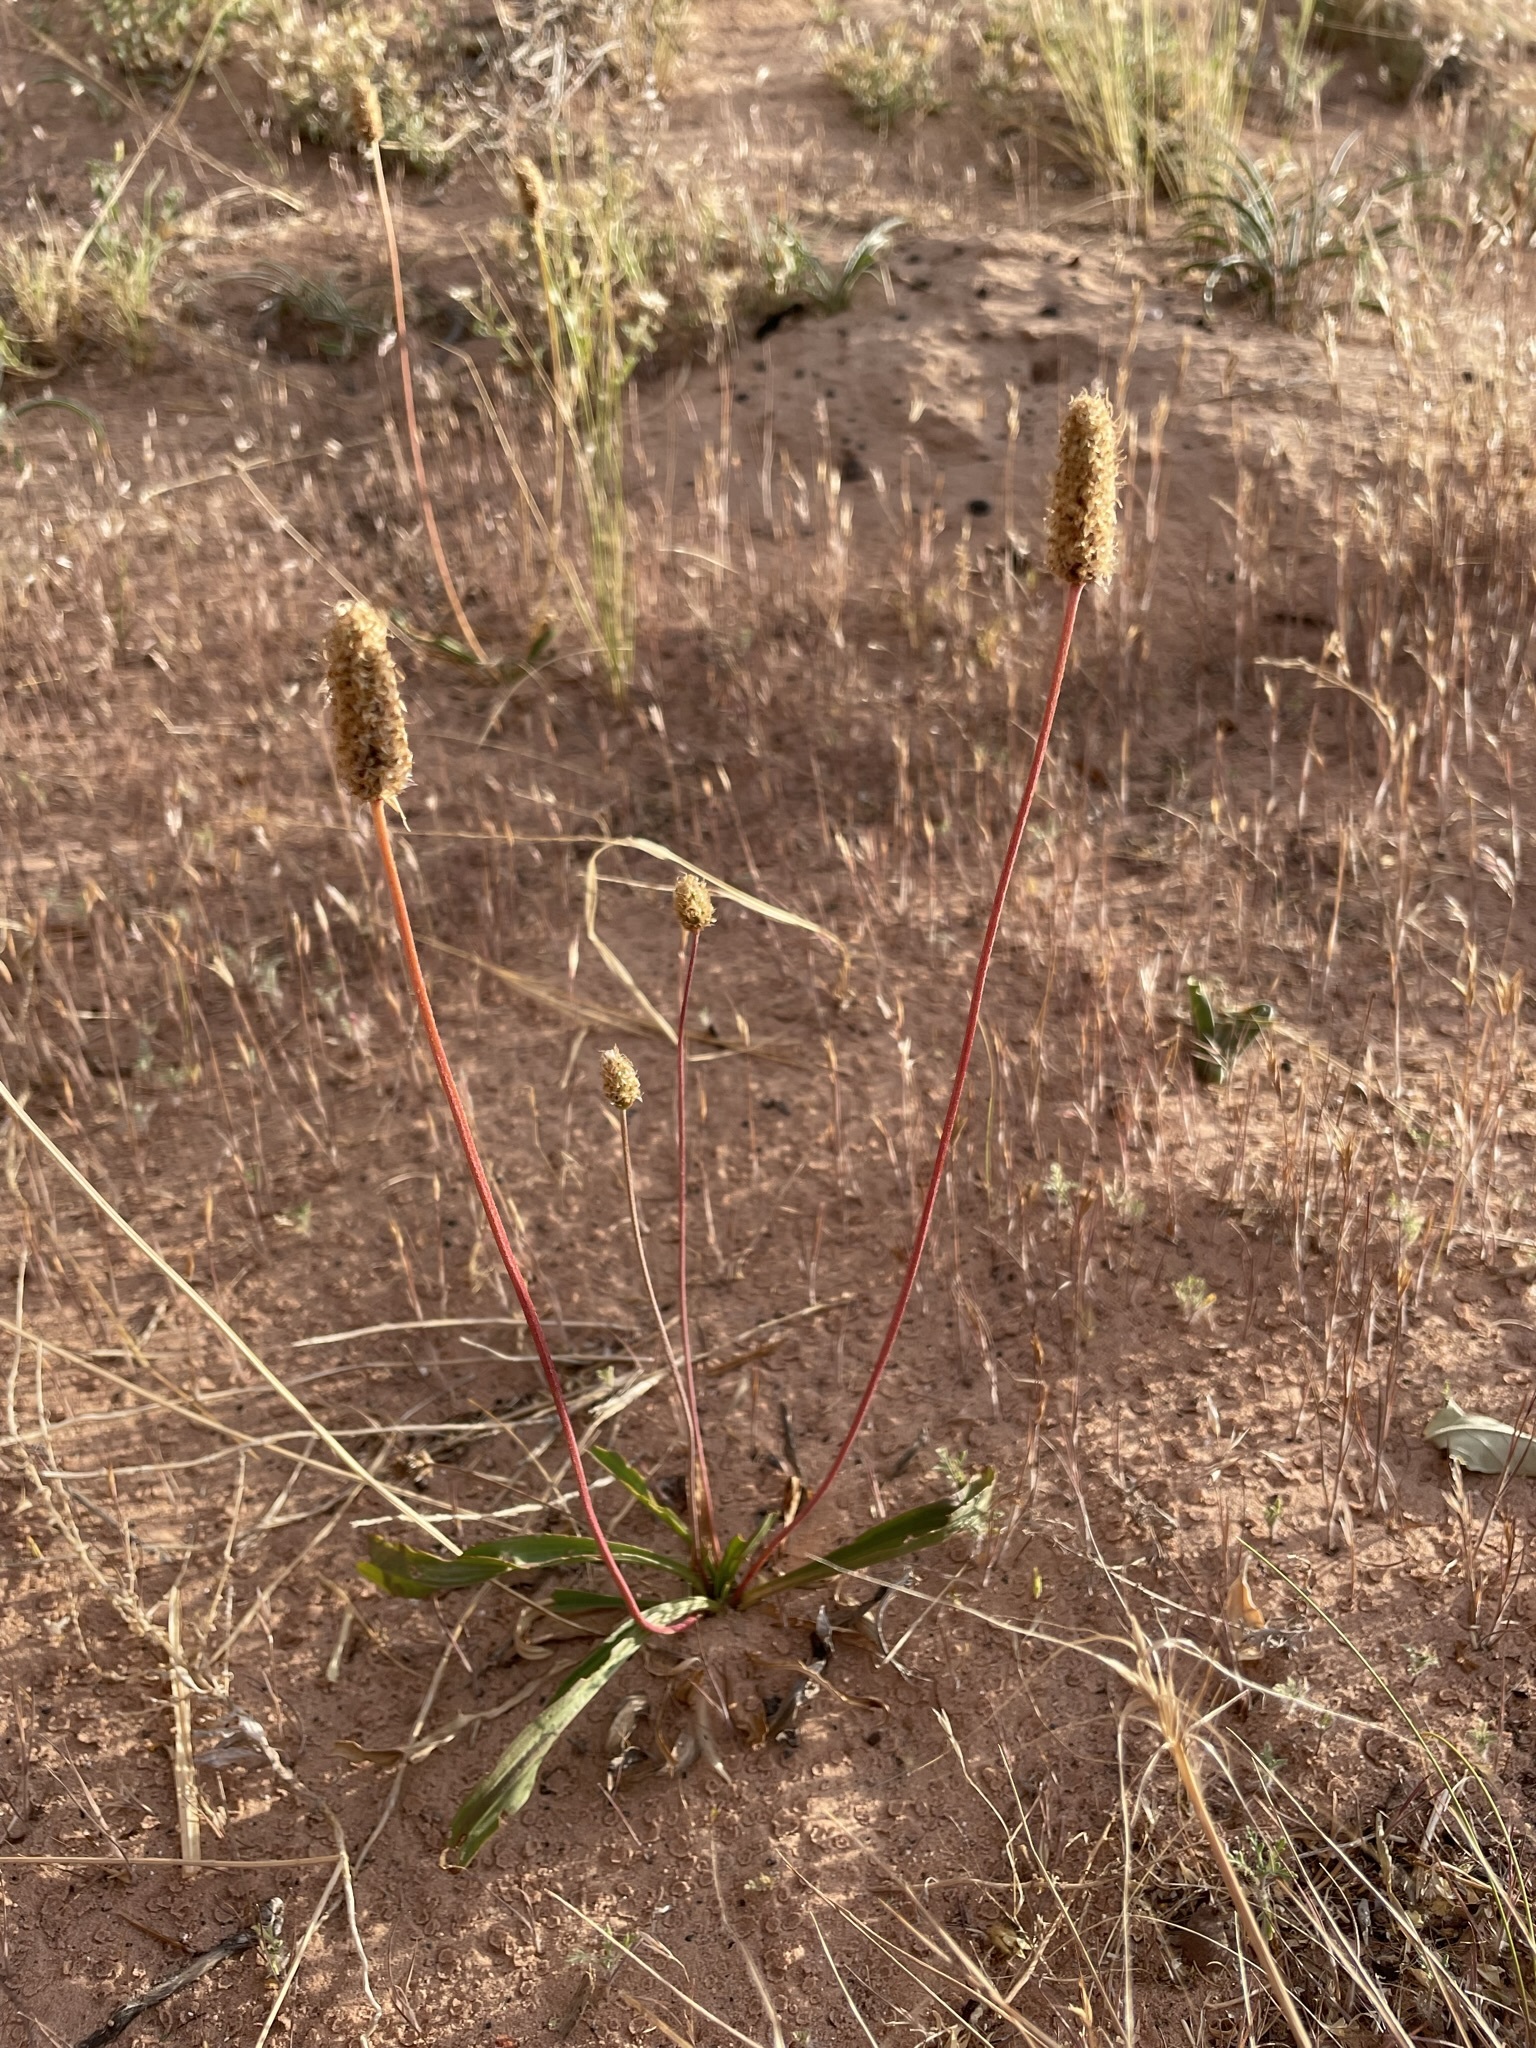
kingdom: Plantae
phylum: Tracheophyta
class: Magnoliopsida
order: Lamiales
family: Plantaginaceae
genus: Plantago
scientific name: Plantago lanceolata
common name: Ribwort plantain
